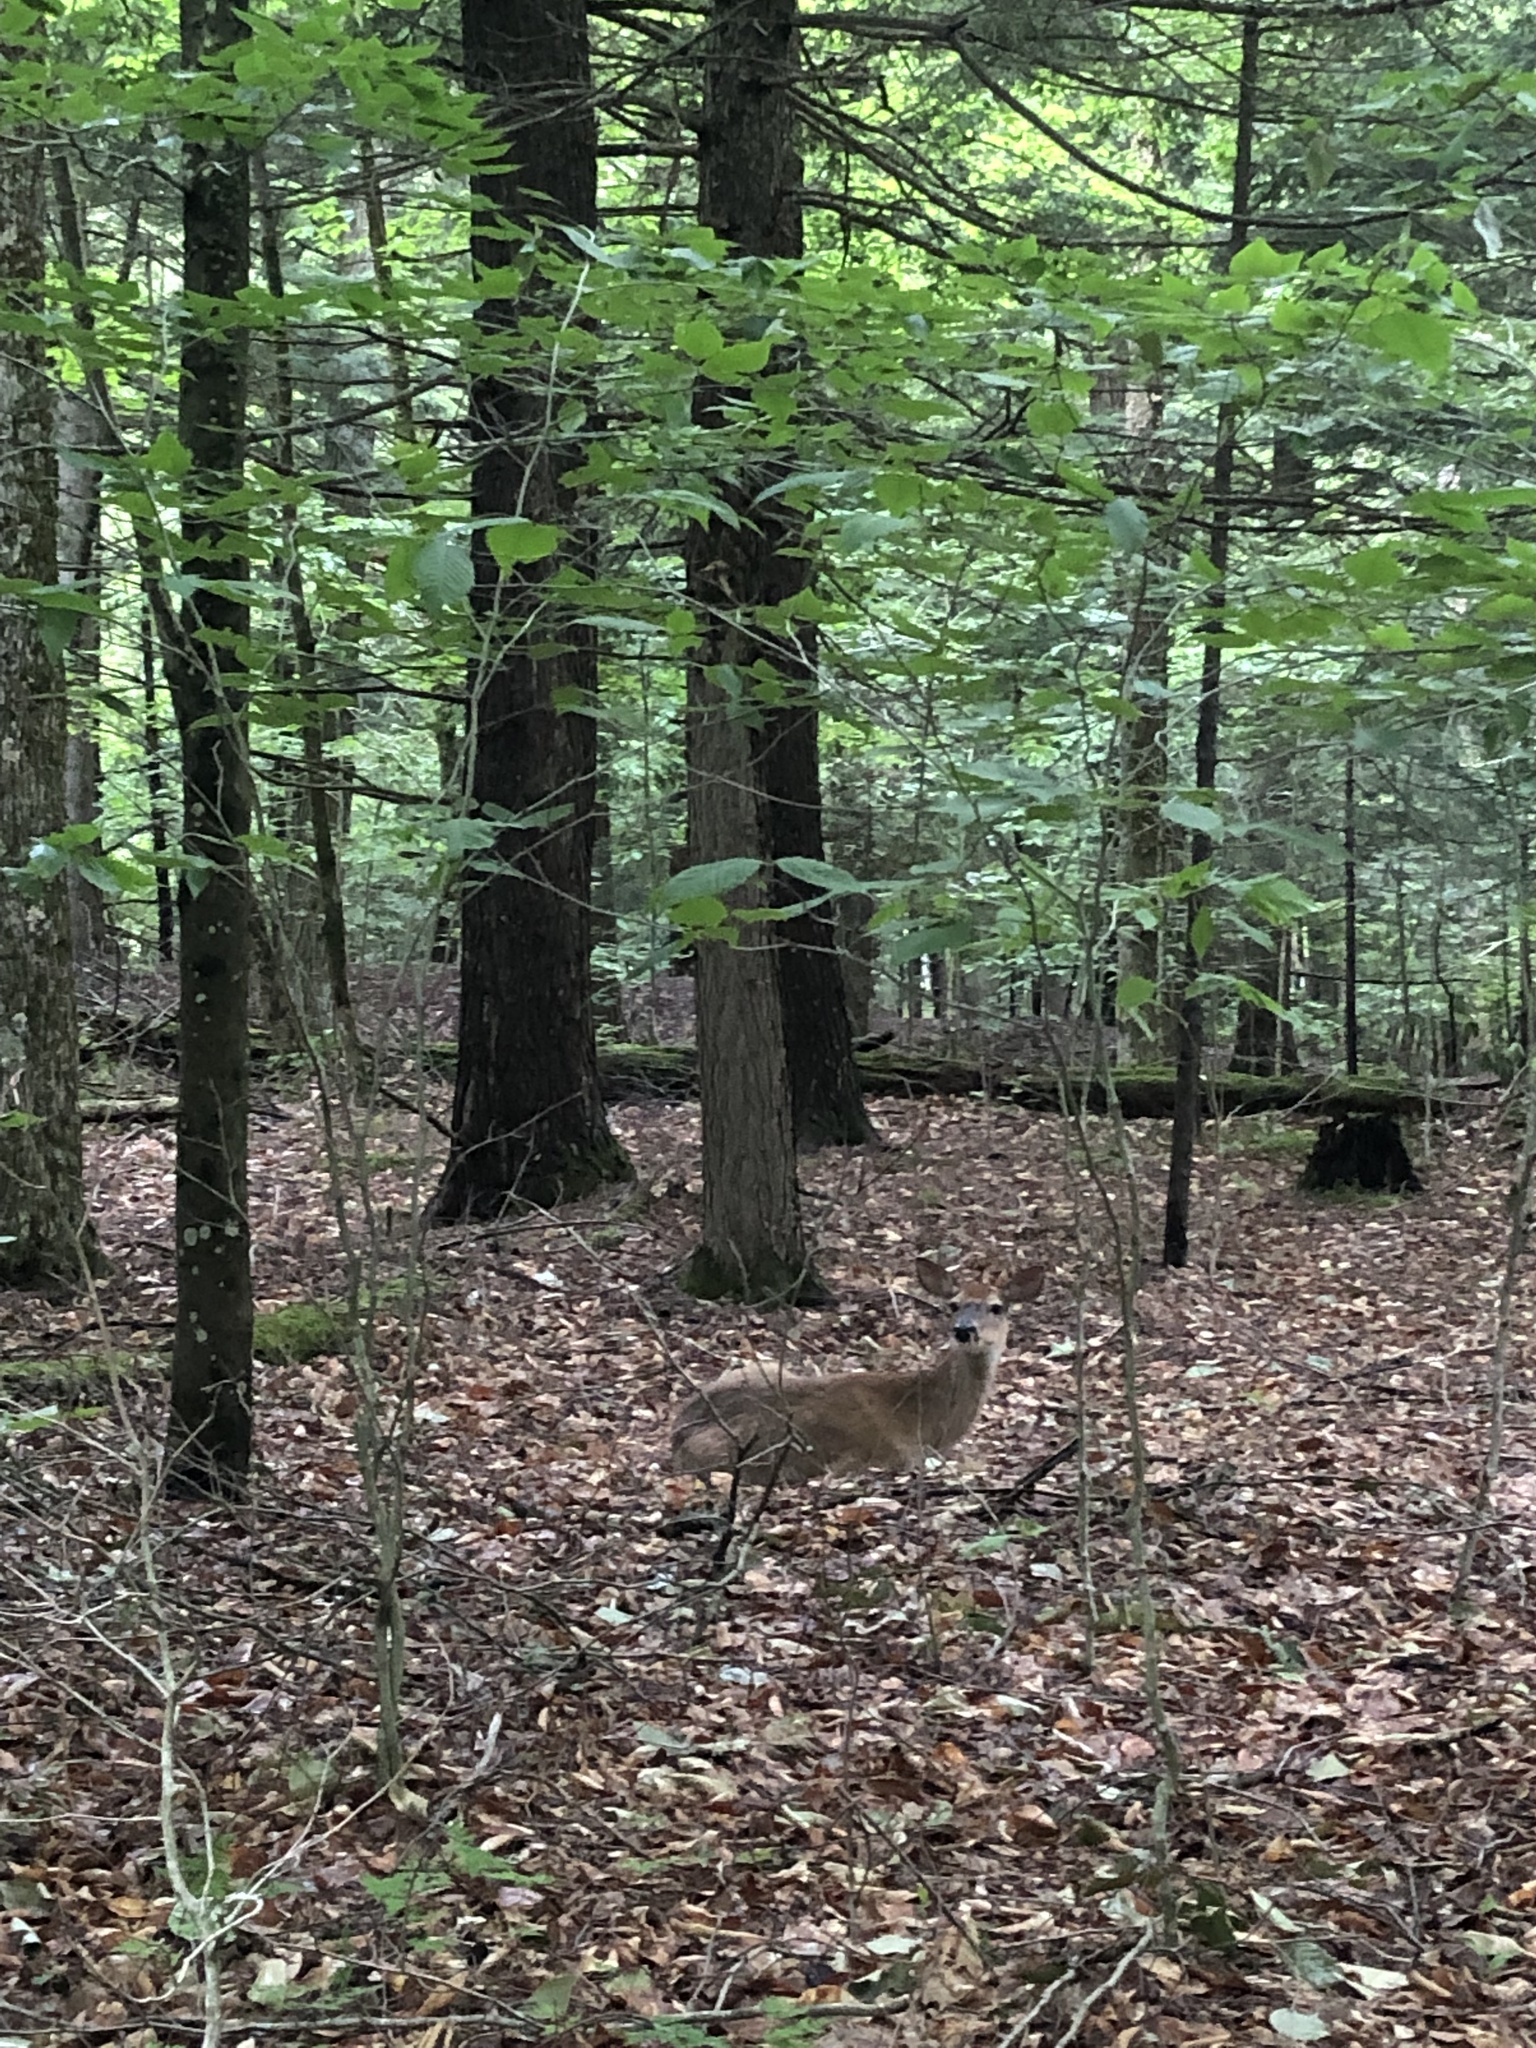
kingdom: Animalia
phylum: Chordata
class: Mammalia
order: Artiodactyla
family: Cervidae
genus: Odocoileus
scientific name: Odocoileus virginianus
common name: White-tailed deer
